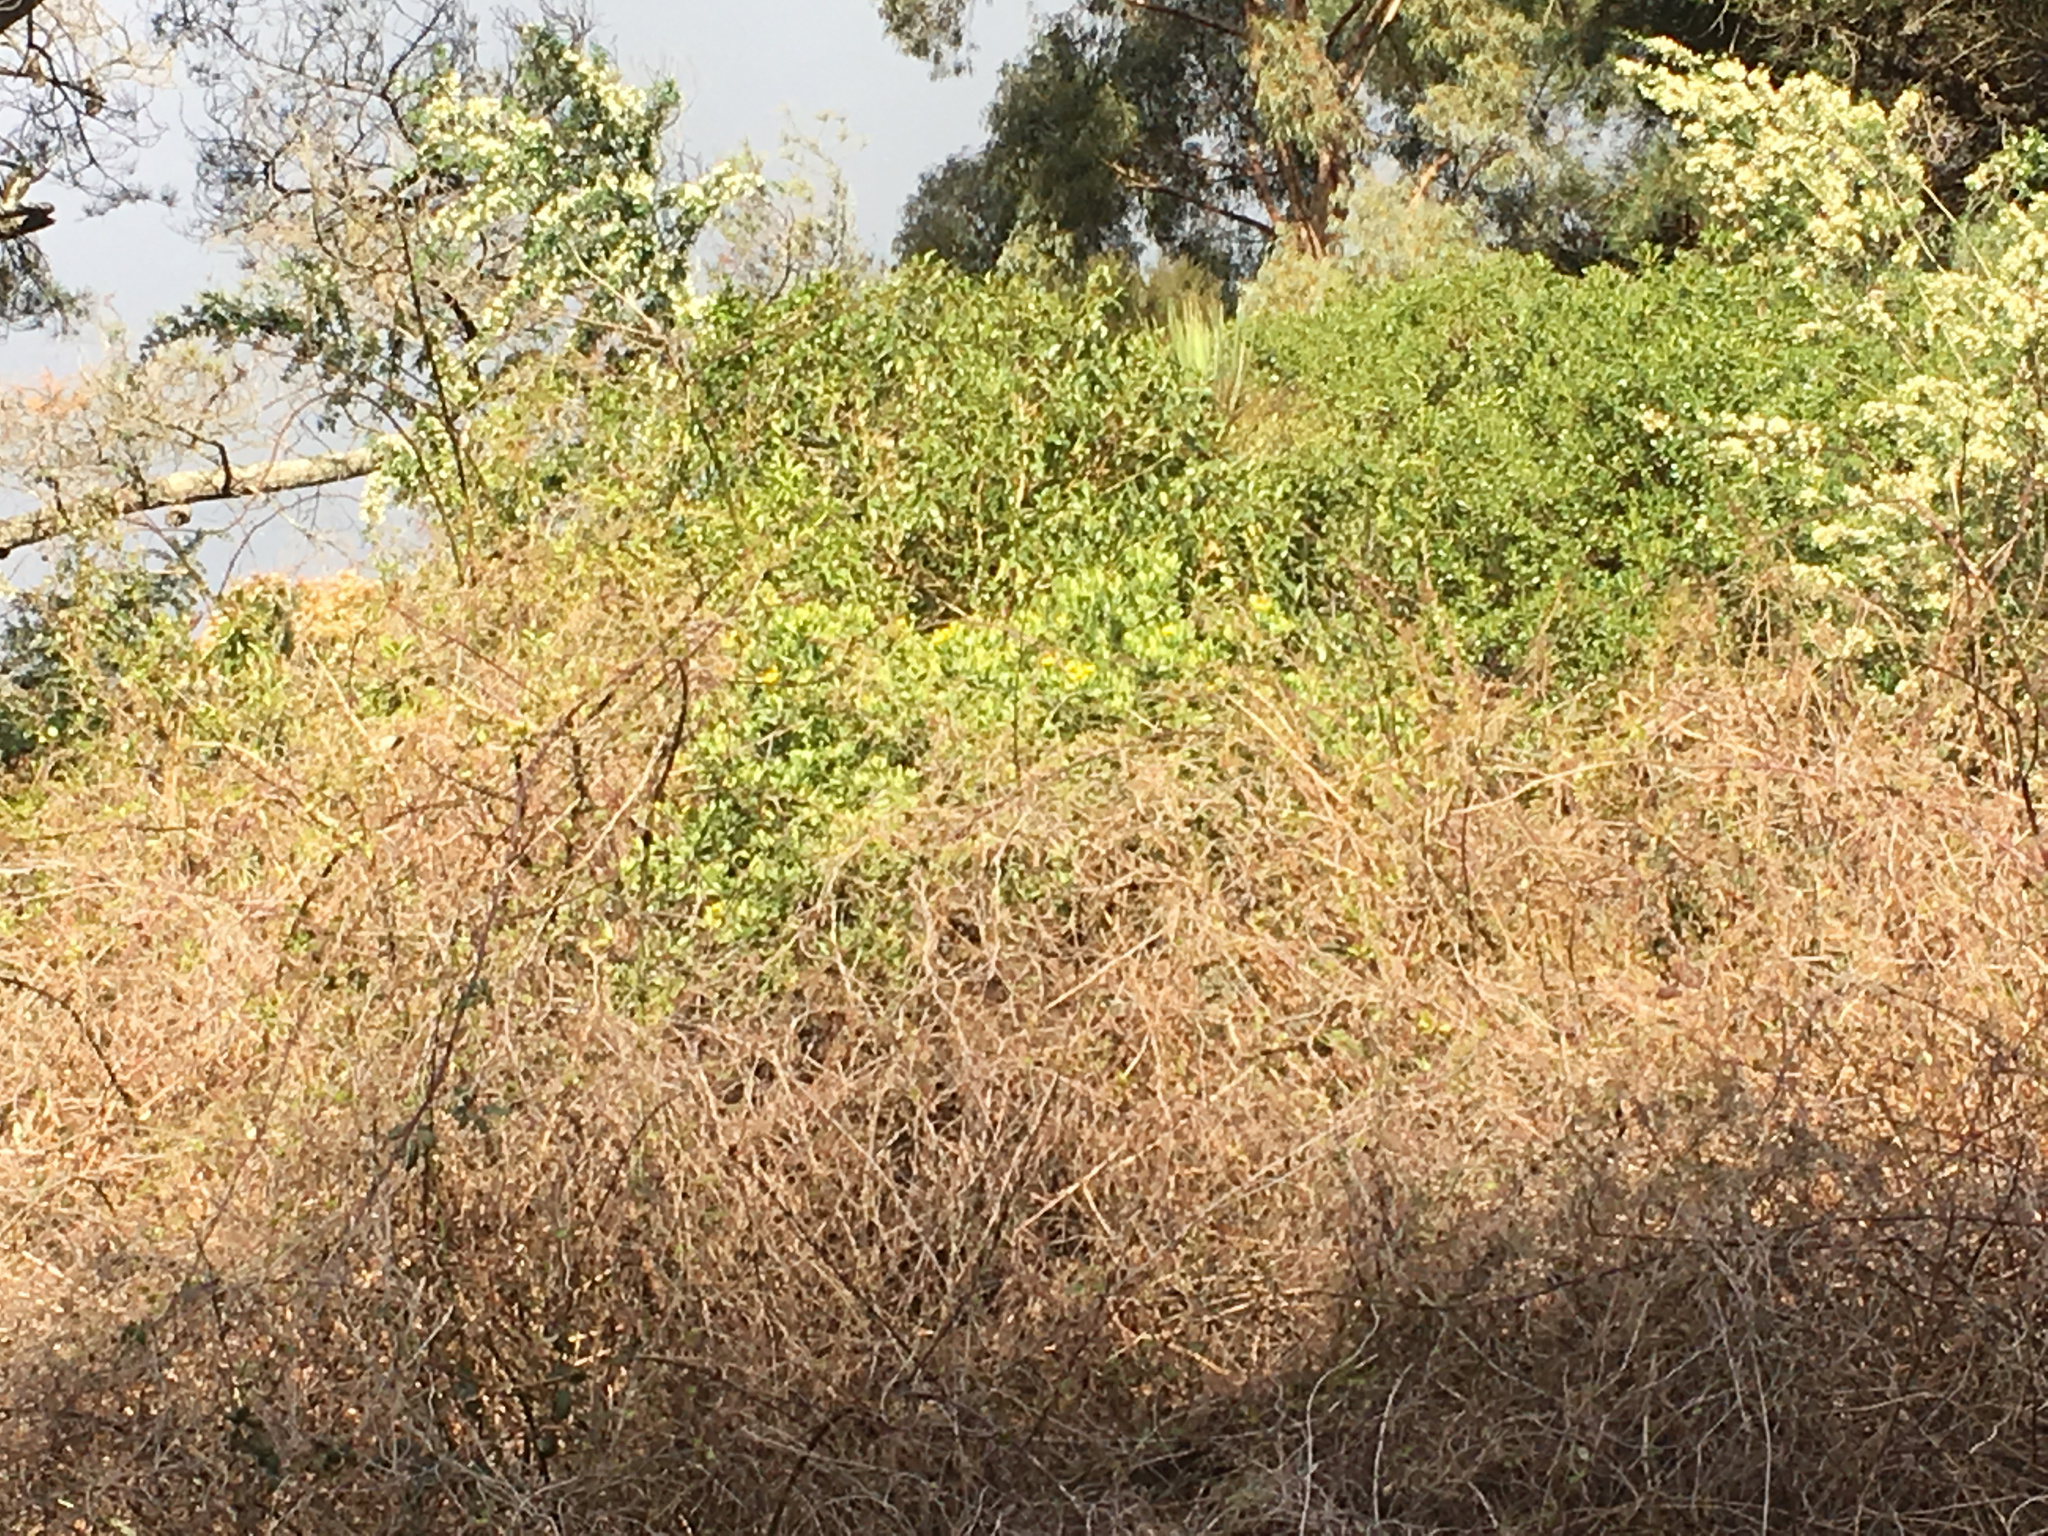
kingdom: Plantae
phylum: Tracheophyta
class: Magnoliopsida
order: Asterales
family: Asteraceae
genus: Osteospermum
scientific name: Osteospermum moniliferum
